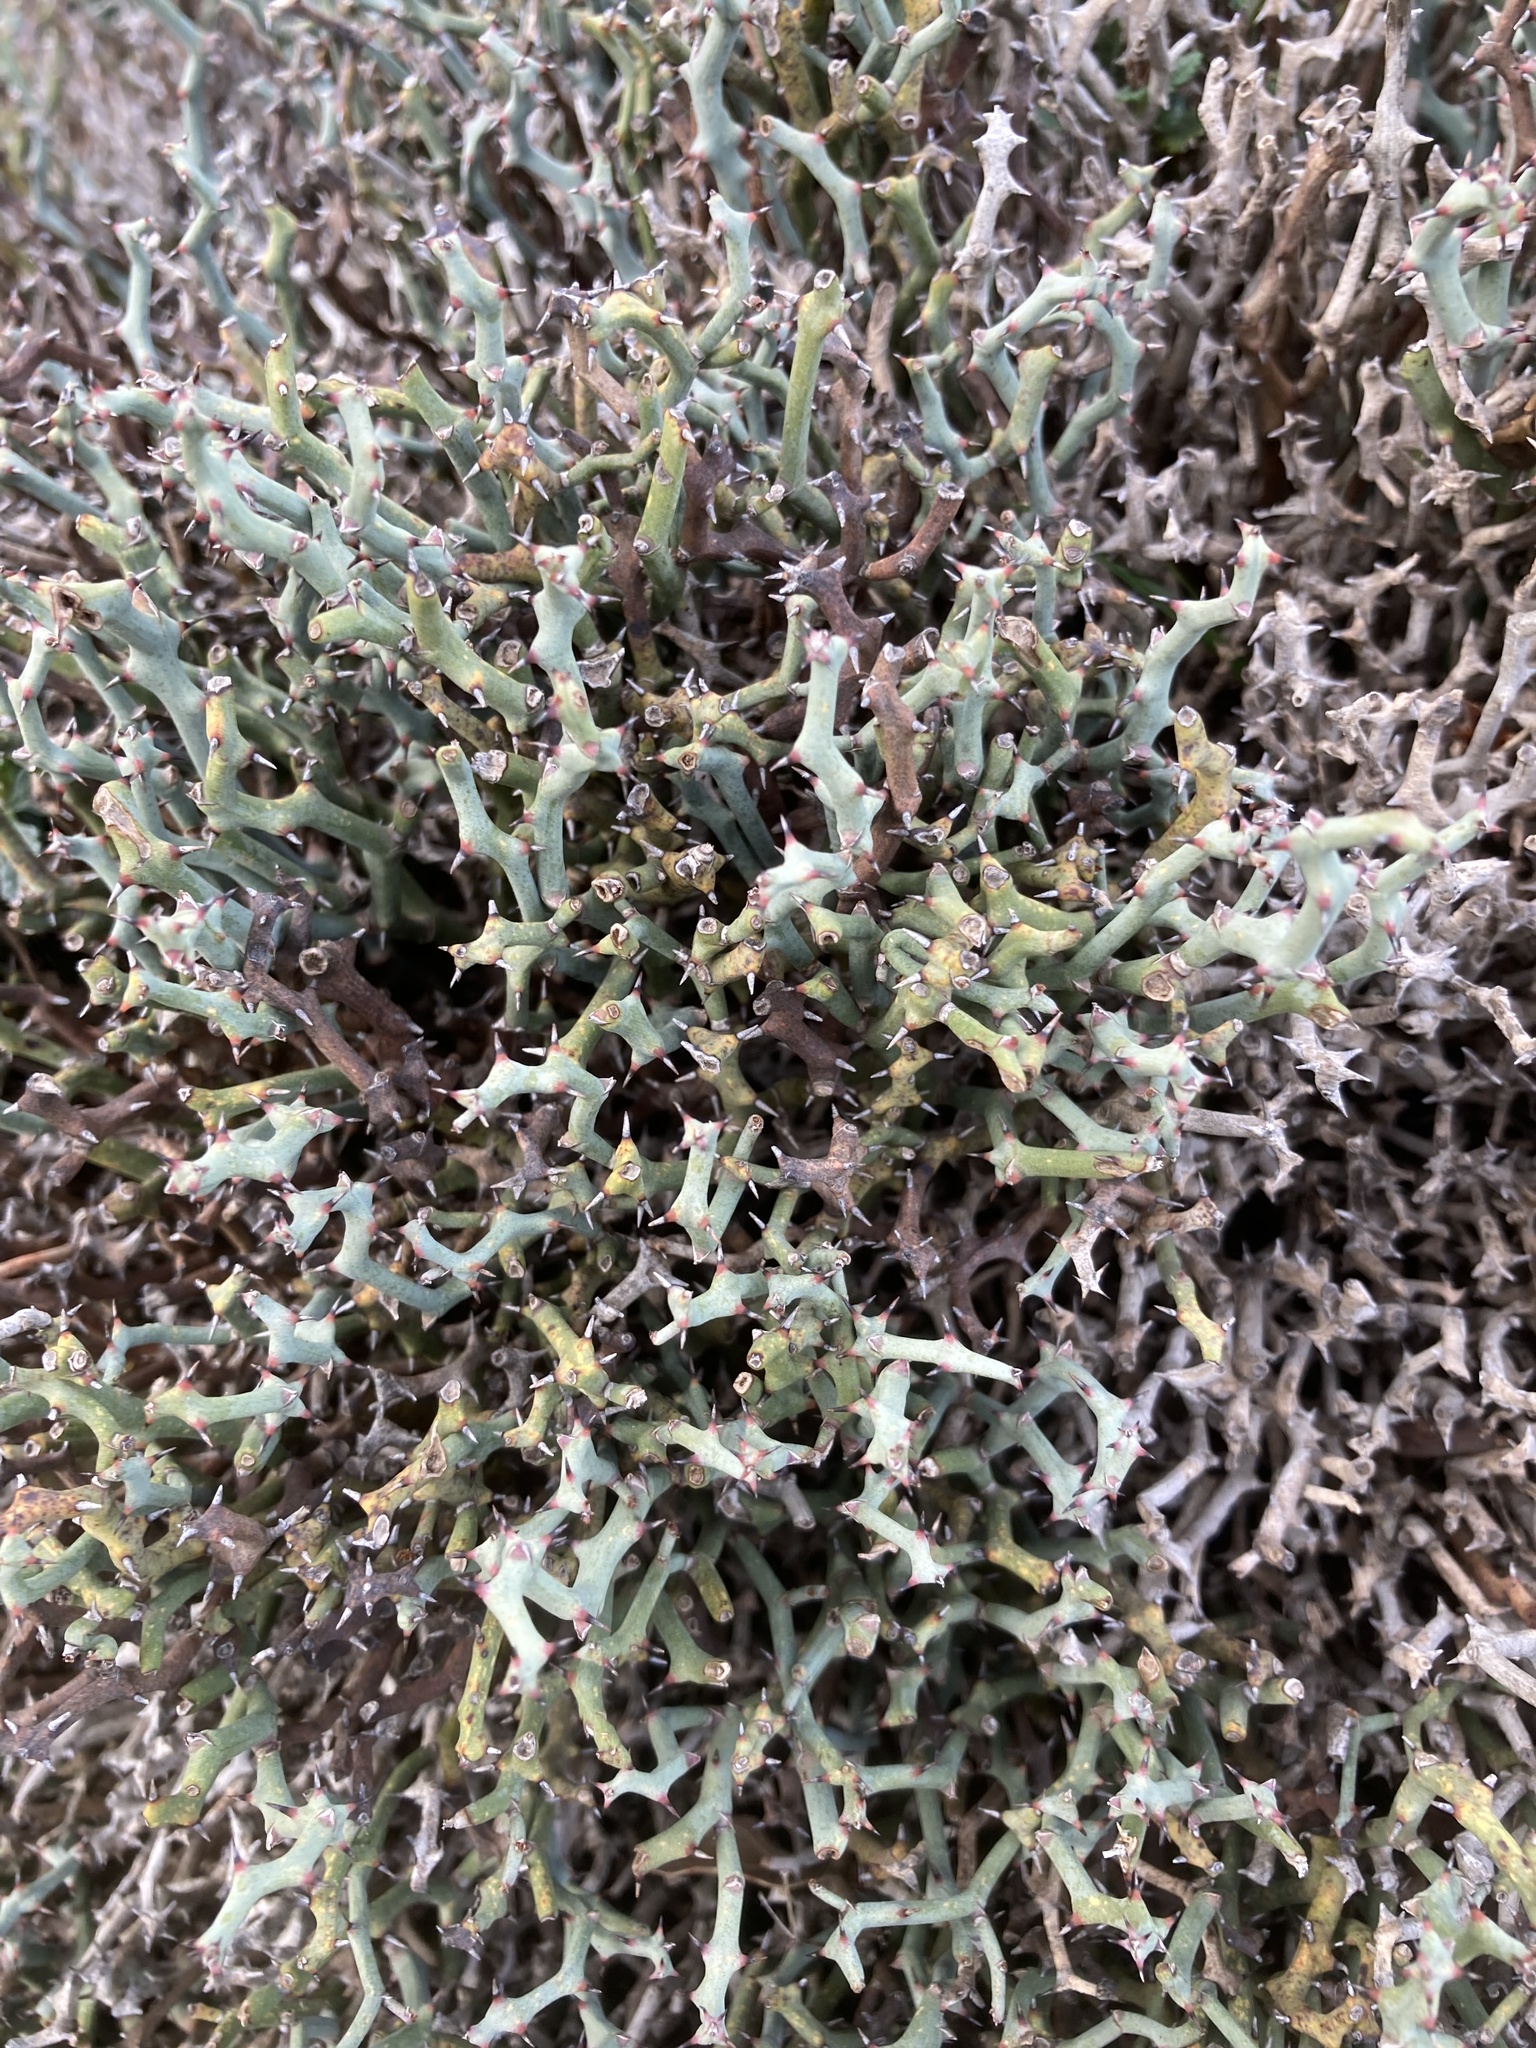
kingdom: Plantae
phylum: Tracheophyta
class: Liliopsida
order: Liliales
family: Smilacaceae
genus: Smilax
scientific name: Smilax aspera
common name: Common smilax
